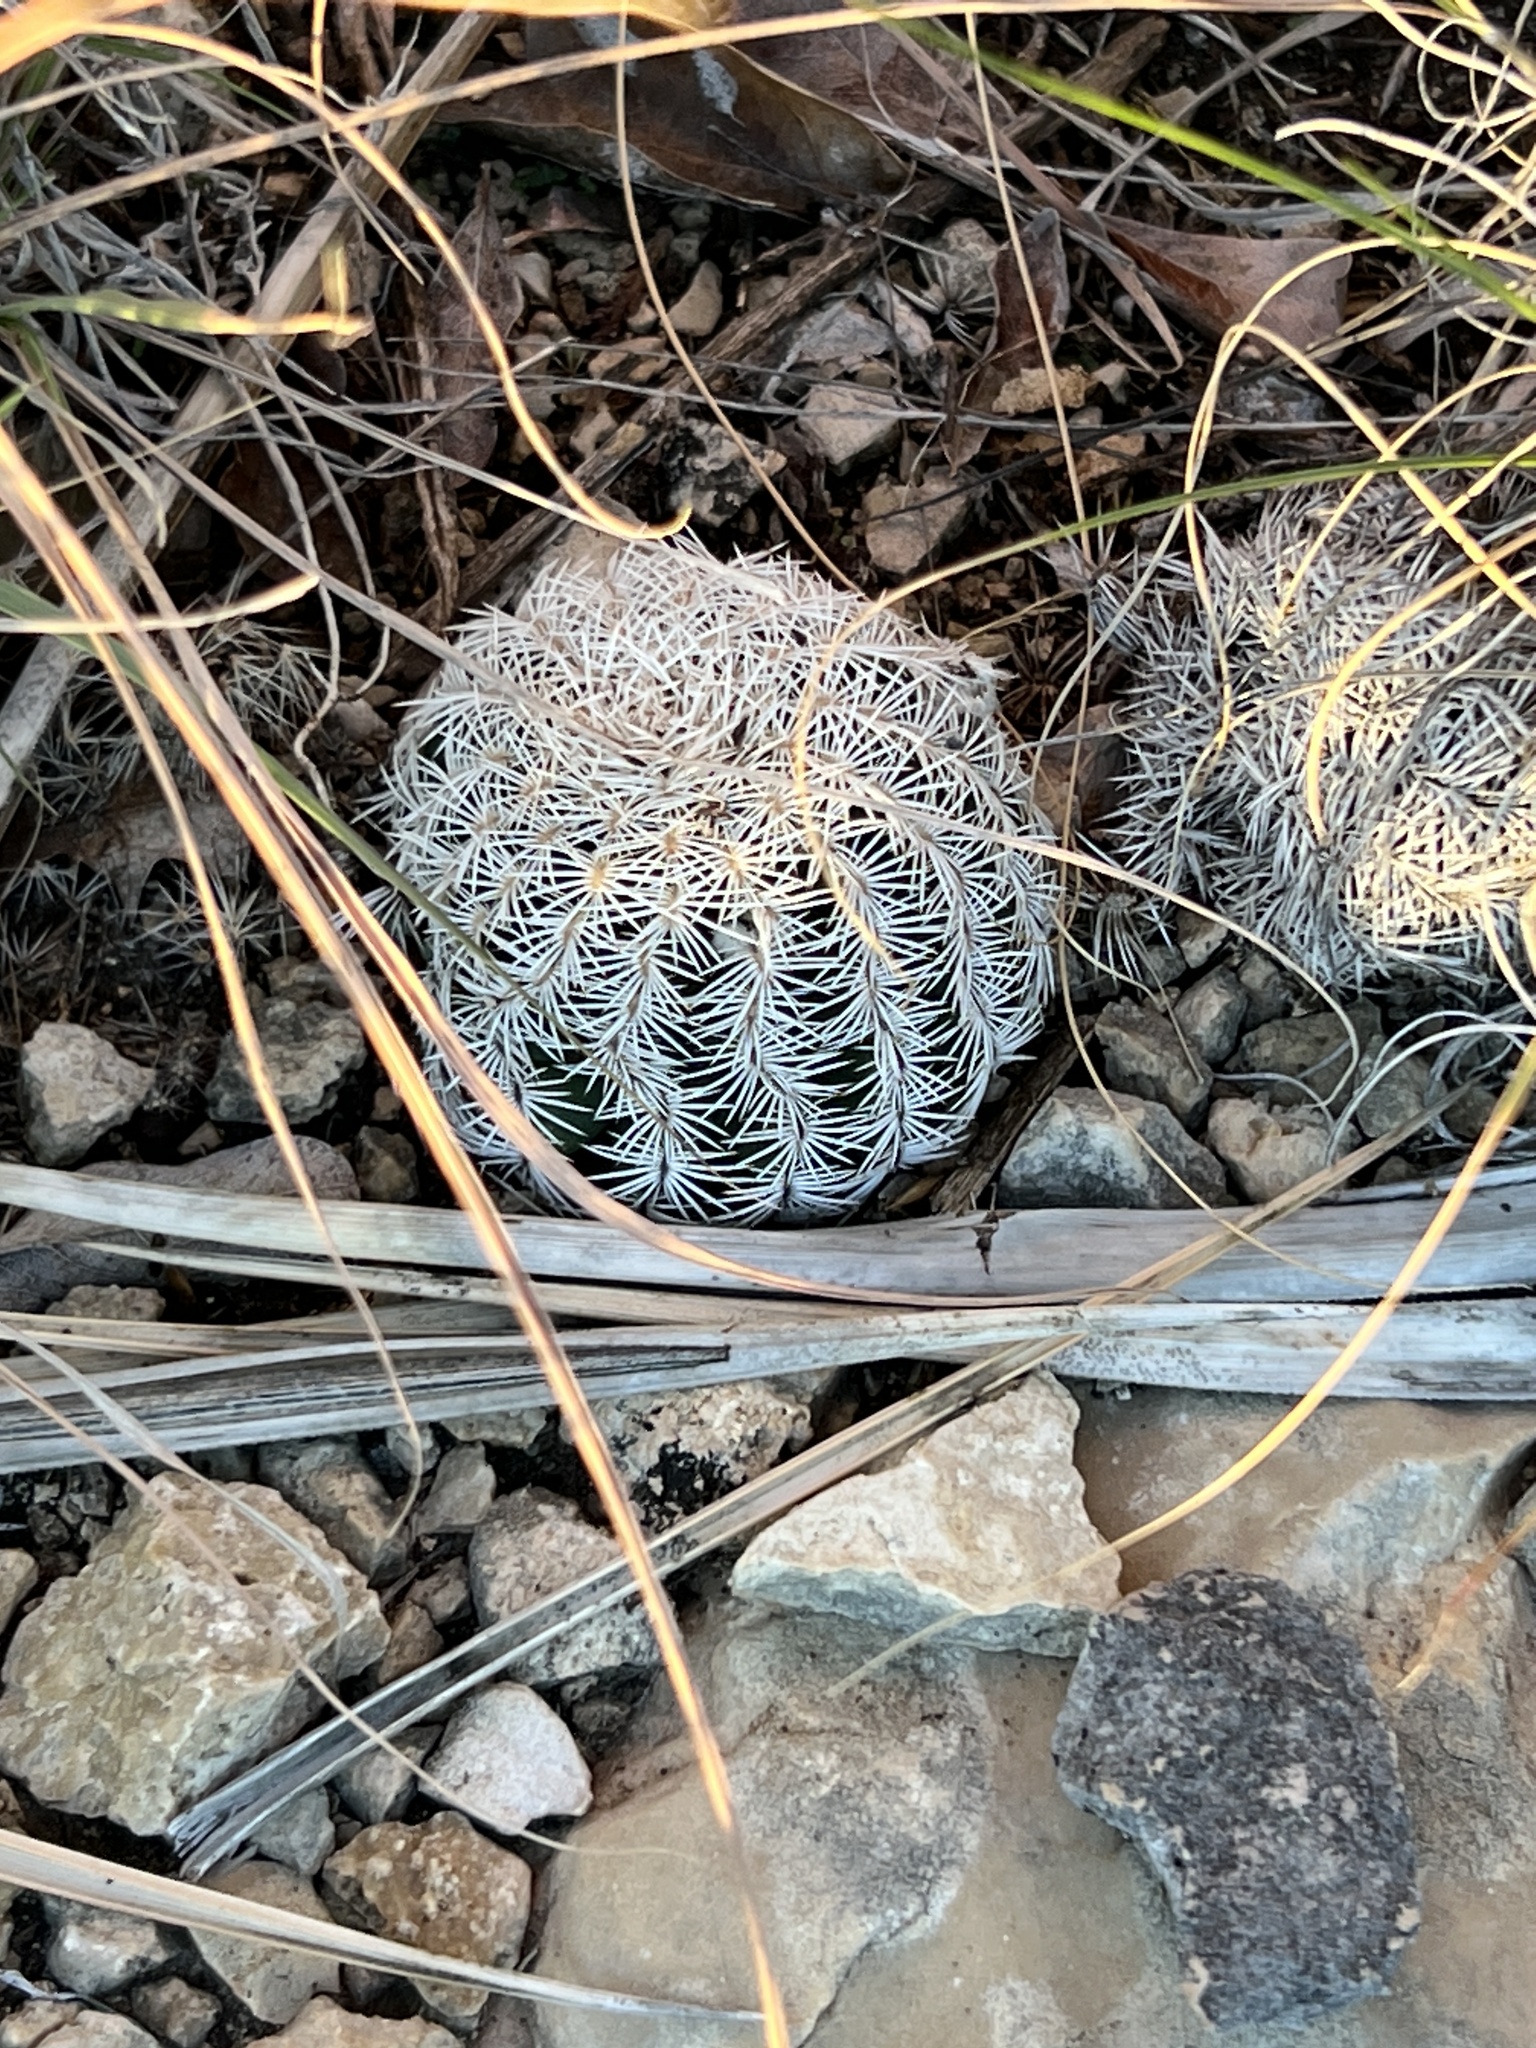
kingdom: Plantae
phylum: Tracheophyta
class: Magnoliopsida
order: Caryophyllales
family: Cactaceae
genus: Echinocereus
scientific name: Echinocereus reichenbachii
